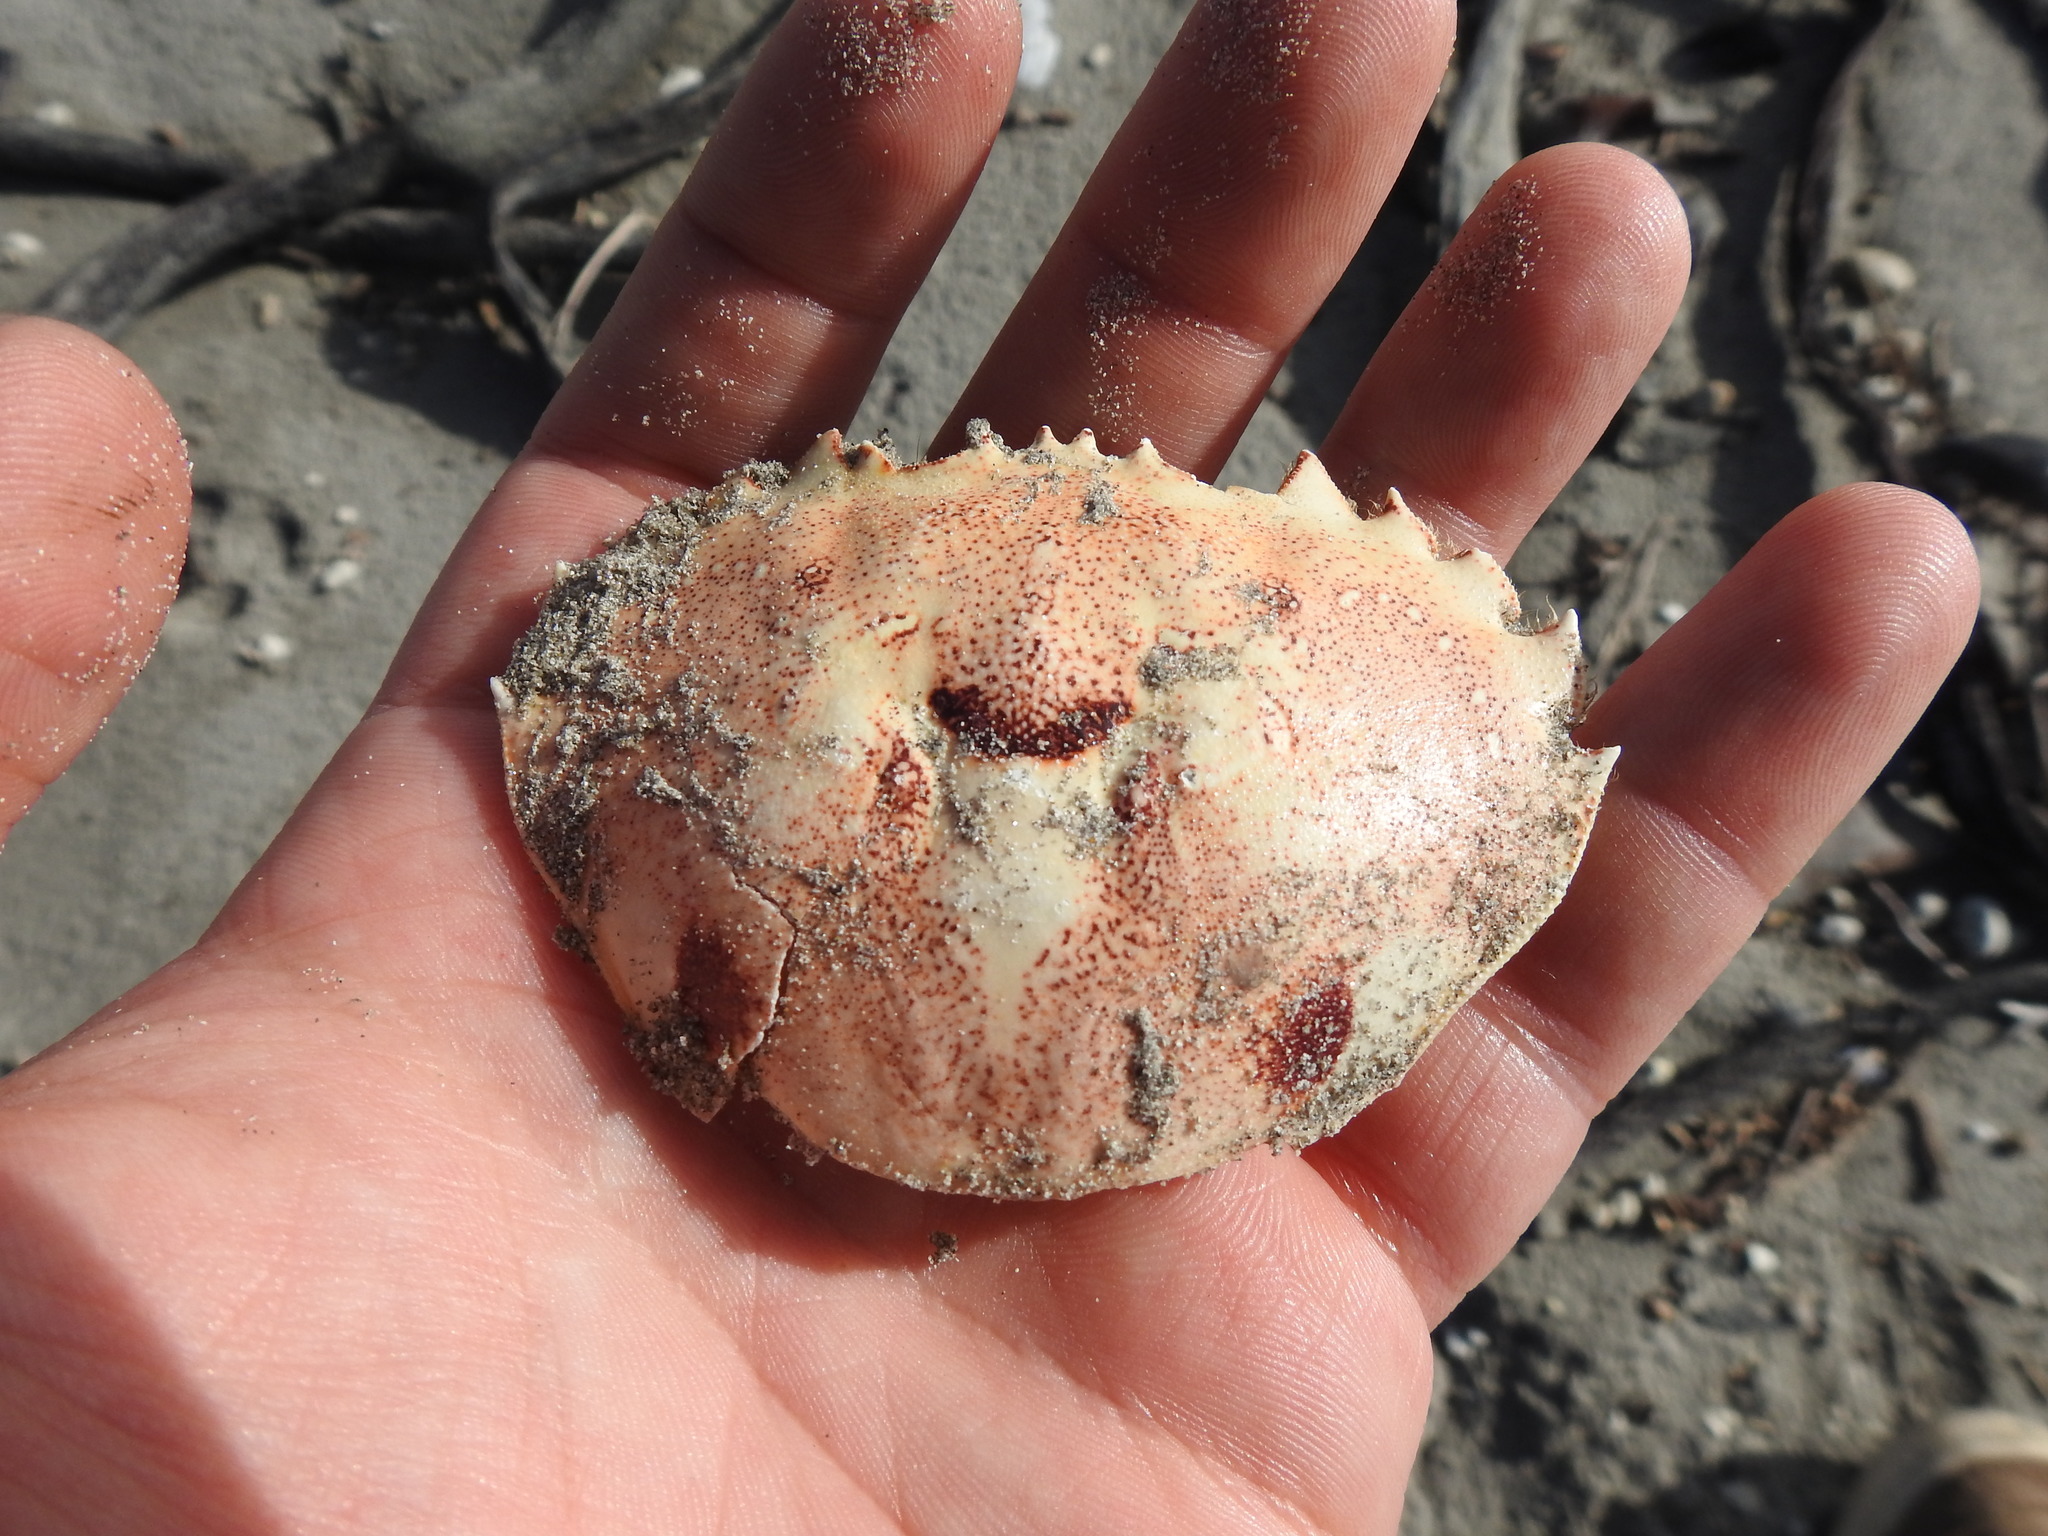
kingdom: Animalia
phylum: Arthropoda
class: Malacostraca
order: Decapoda
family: Ovalipidae
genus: Ovalipes
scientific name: Ovalipes trimaculatus
